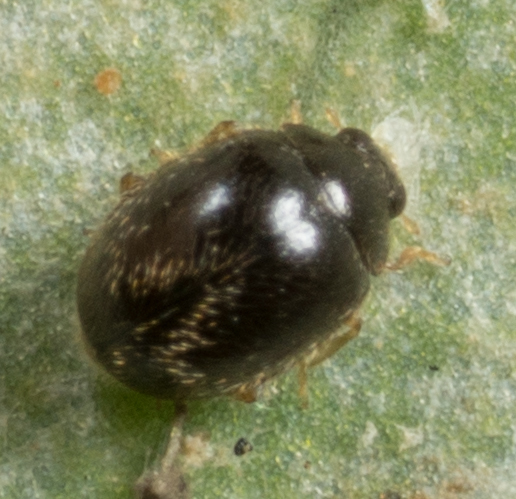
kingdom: Animalia
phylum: Arthropoda
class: Insecta
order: Coleoptera
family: Coccinellidae
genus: Stethorus
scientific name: Stethorus punctum
